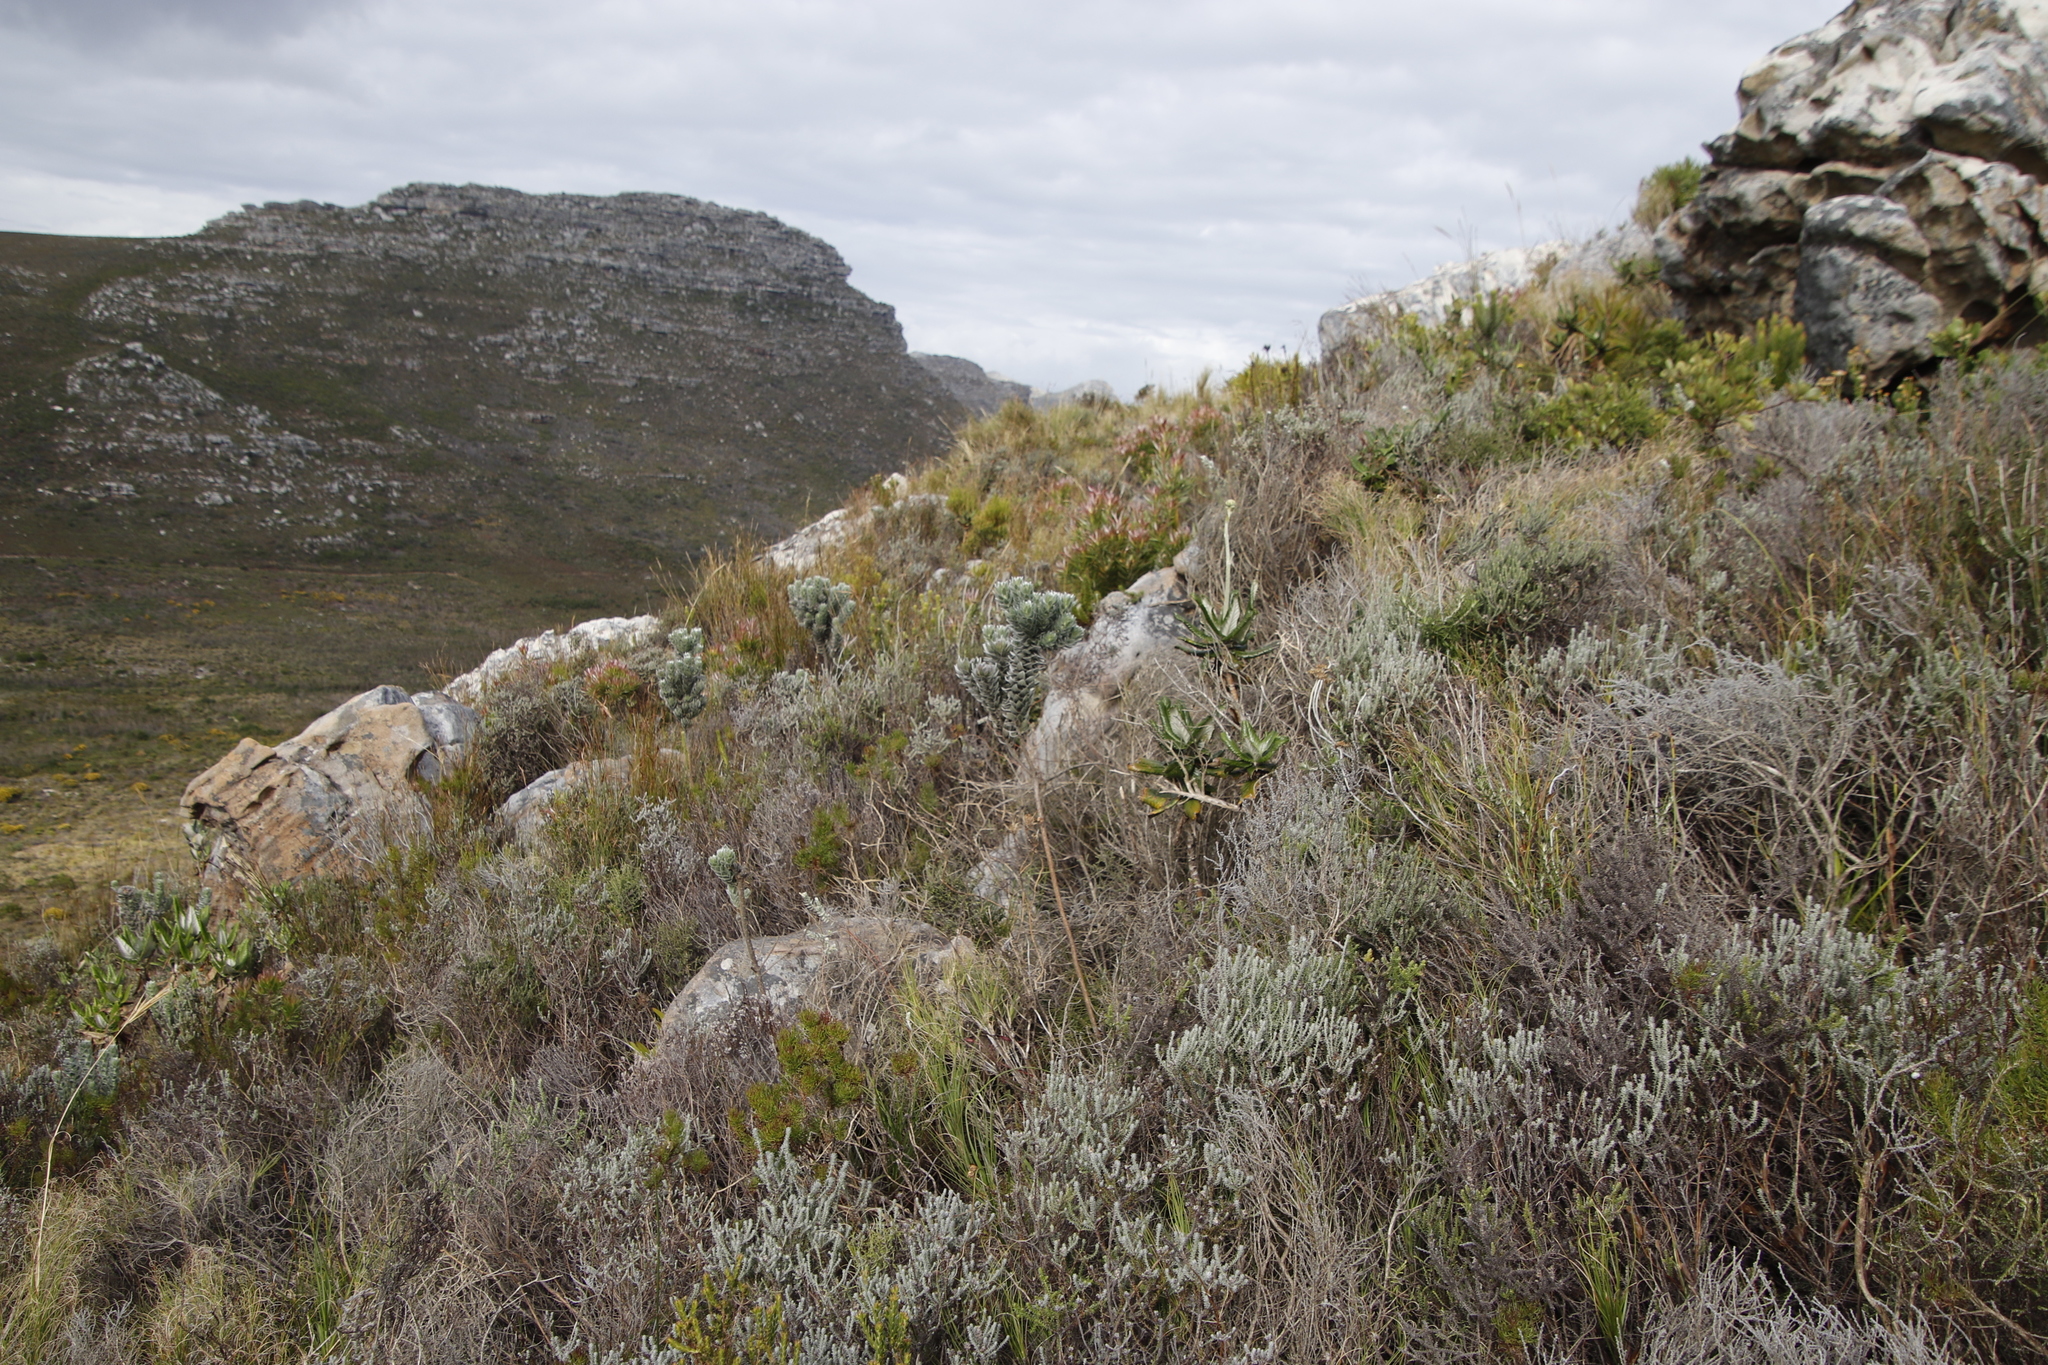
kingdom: Plantae
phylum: Tracheophyta
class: Magnoliopsida
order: Fabales
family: Fabaceae
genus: Xiphotheca
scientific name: Xiphotheca fruticosa
